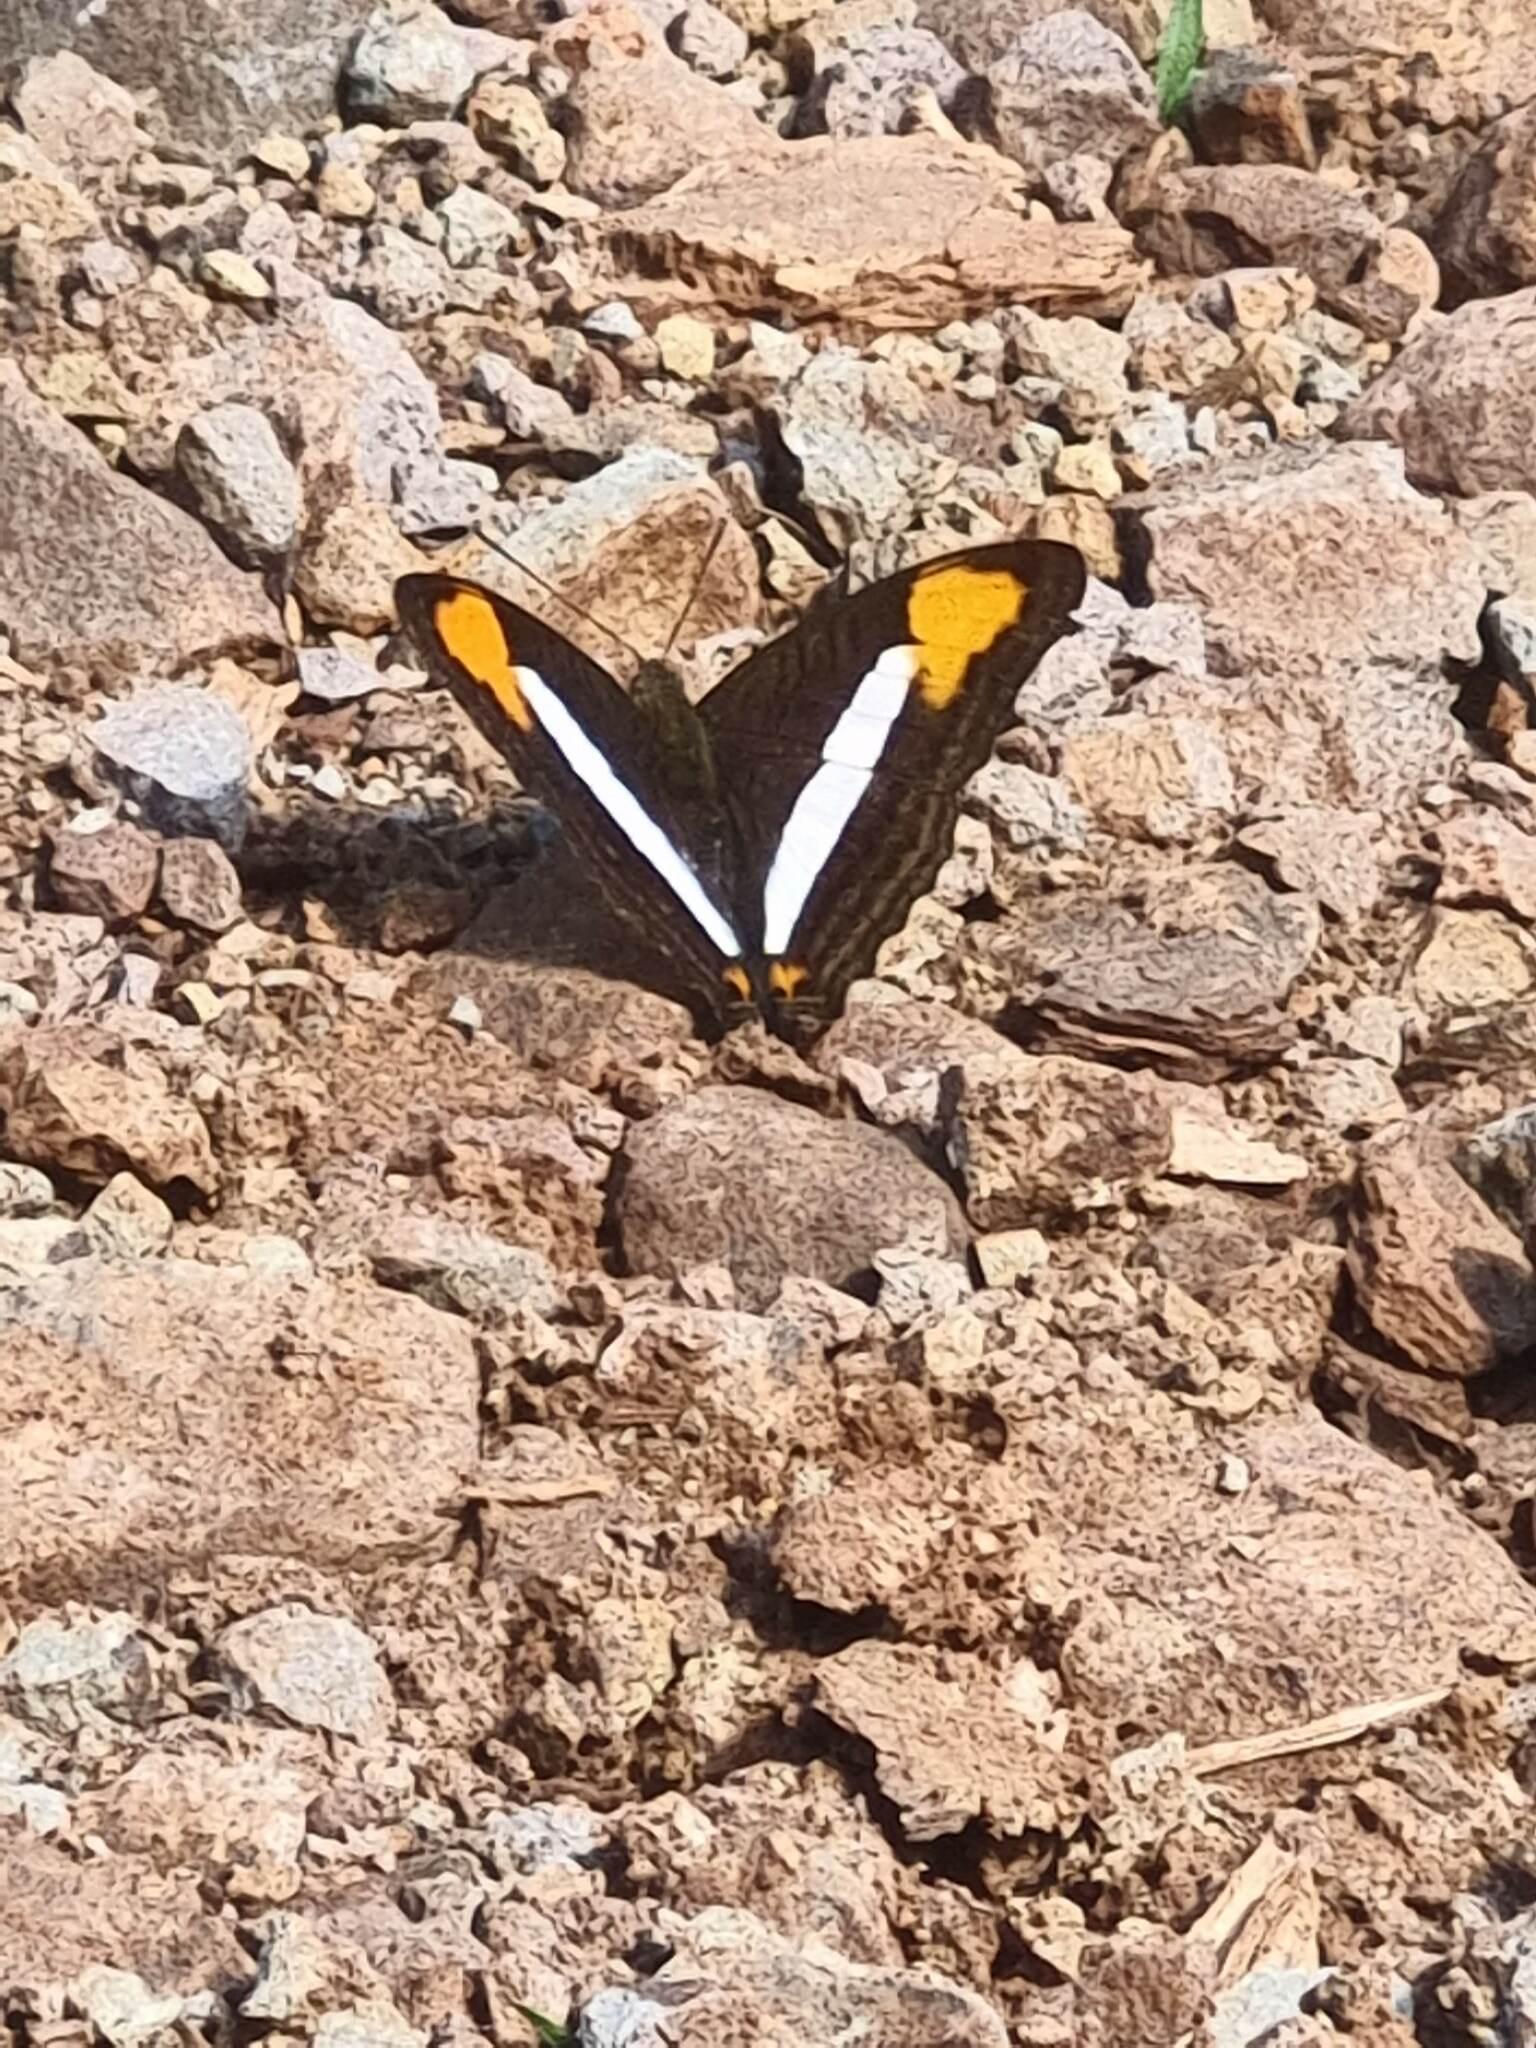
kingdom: Animalia
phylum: Arthropoda
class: Insecta
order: Lepidoptera
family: Nymphalidae
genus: Limenitis
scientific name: Limenitis abia
